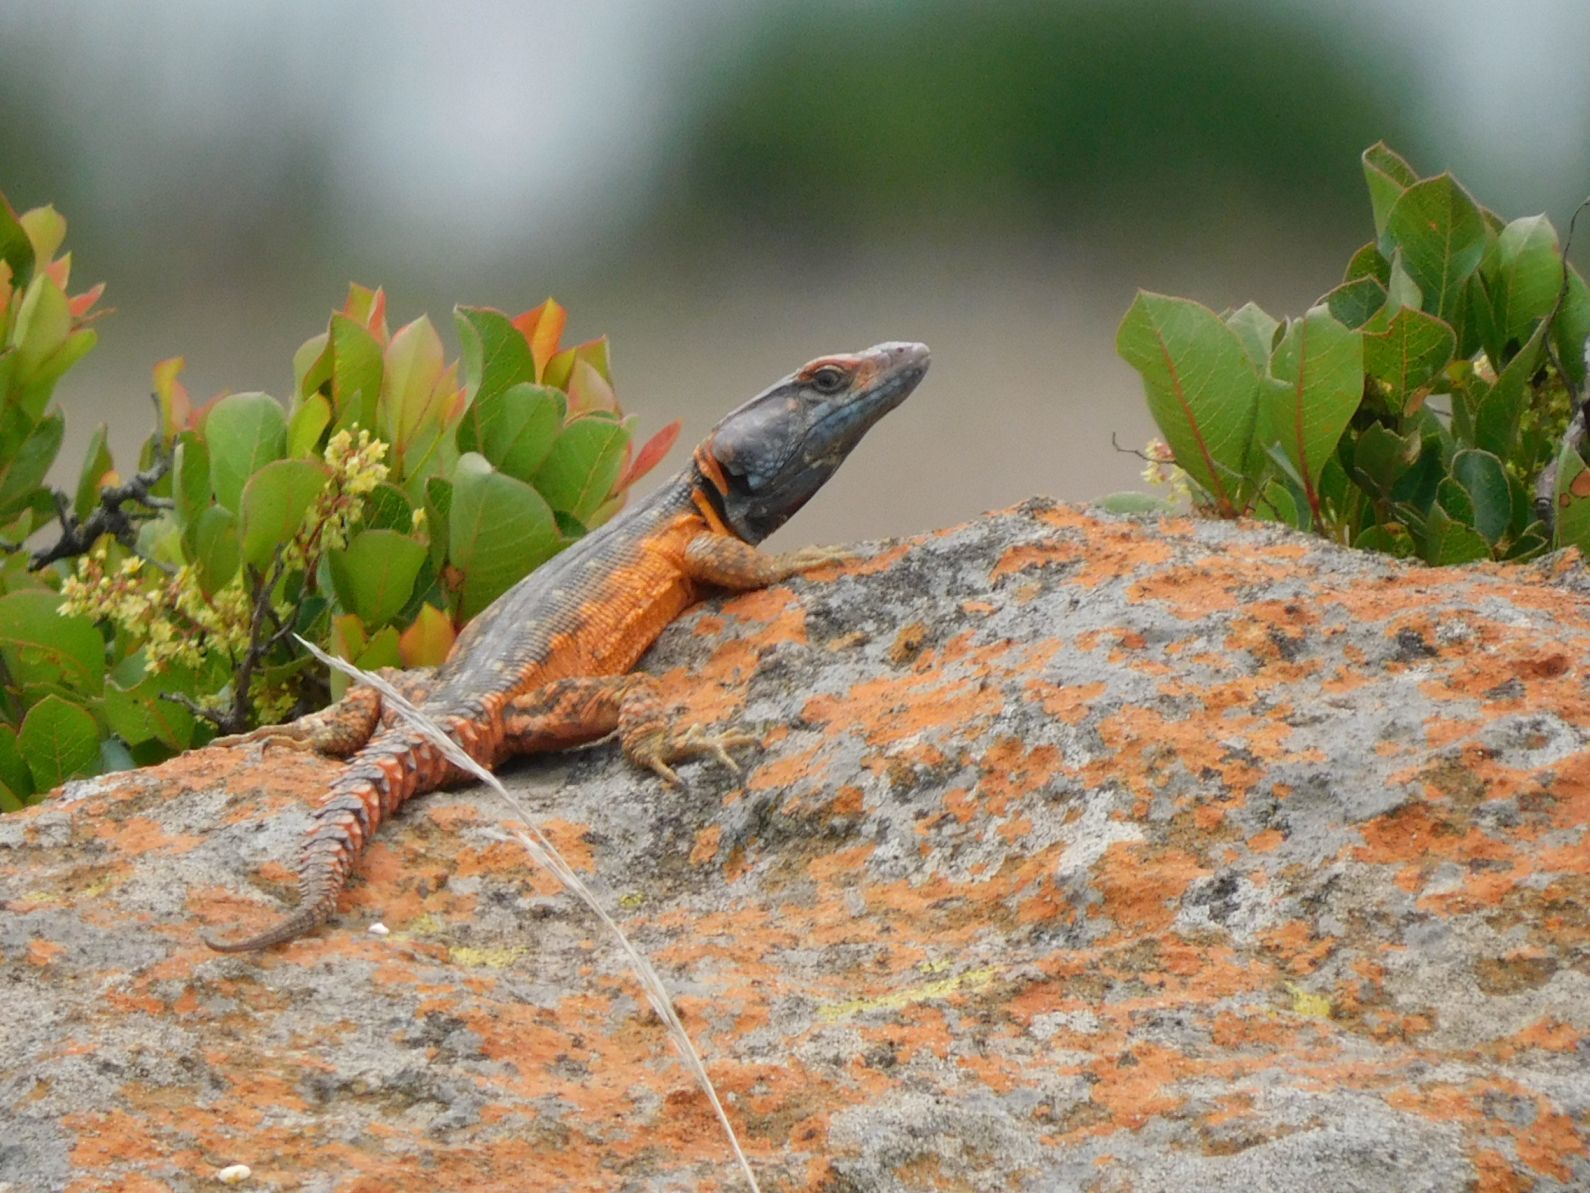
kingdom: Animalia
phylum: Chordata
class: Squamata
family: Cordylidae
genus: Pseudocordylus
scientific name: Pseudocordylus melanotus
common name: Highveld crag lizard
